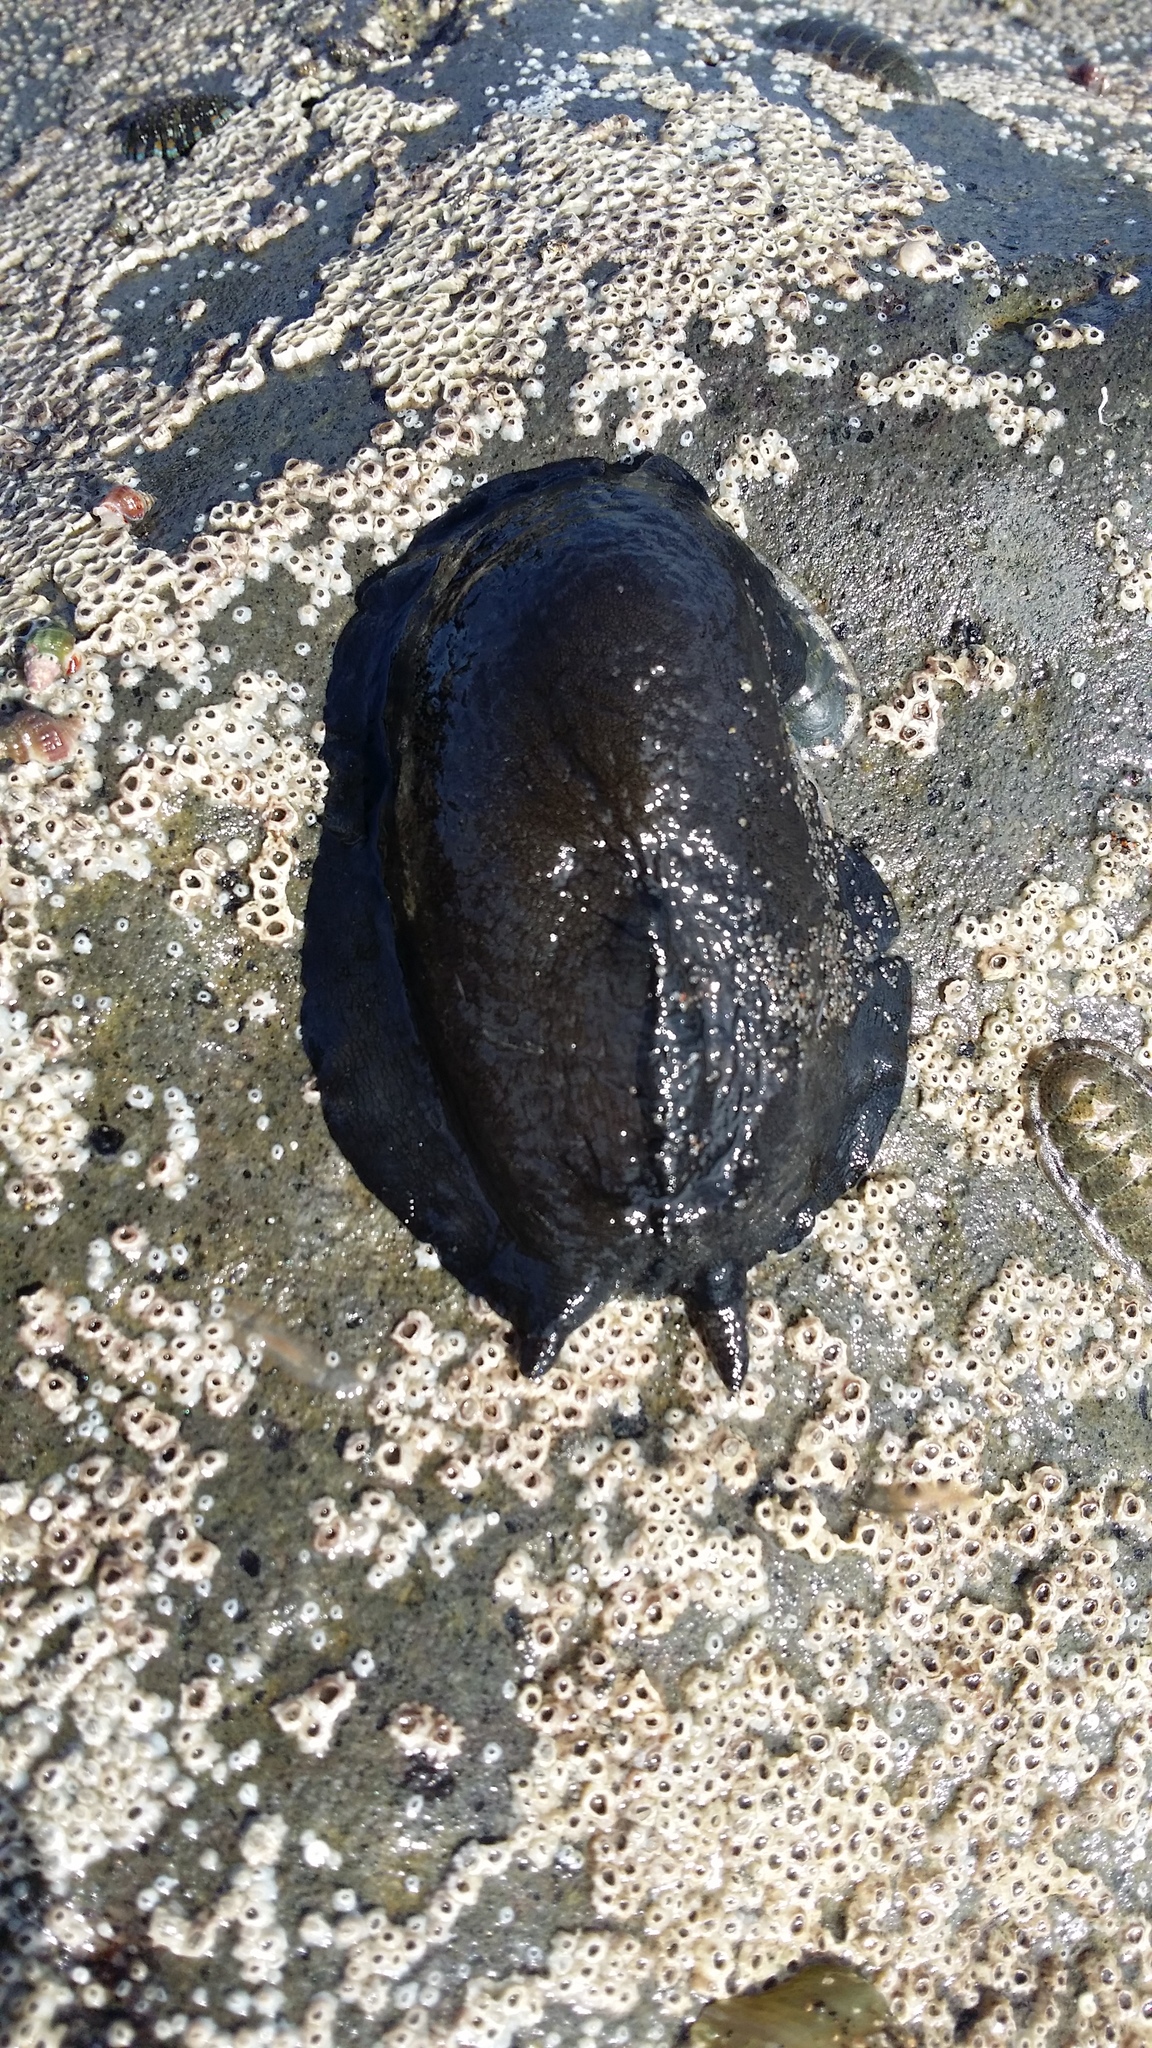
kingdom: Animalia
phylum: Mollusca
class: Gastropoda
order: Lepetellida
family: Fissurellidae
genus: Scutus
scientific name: Scutus breviculus
